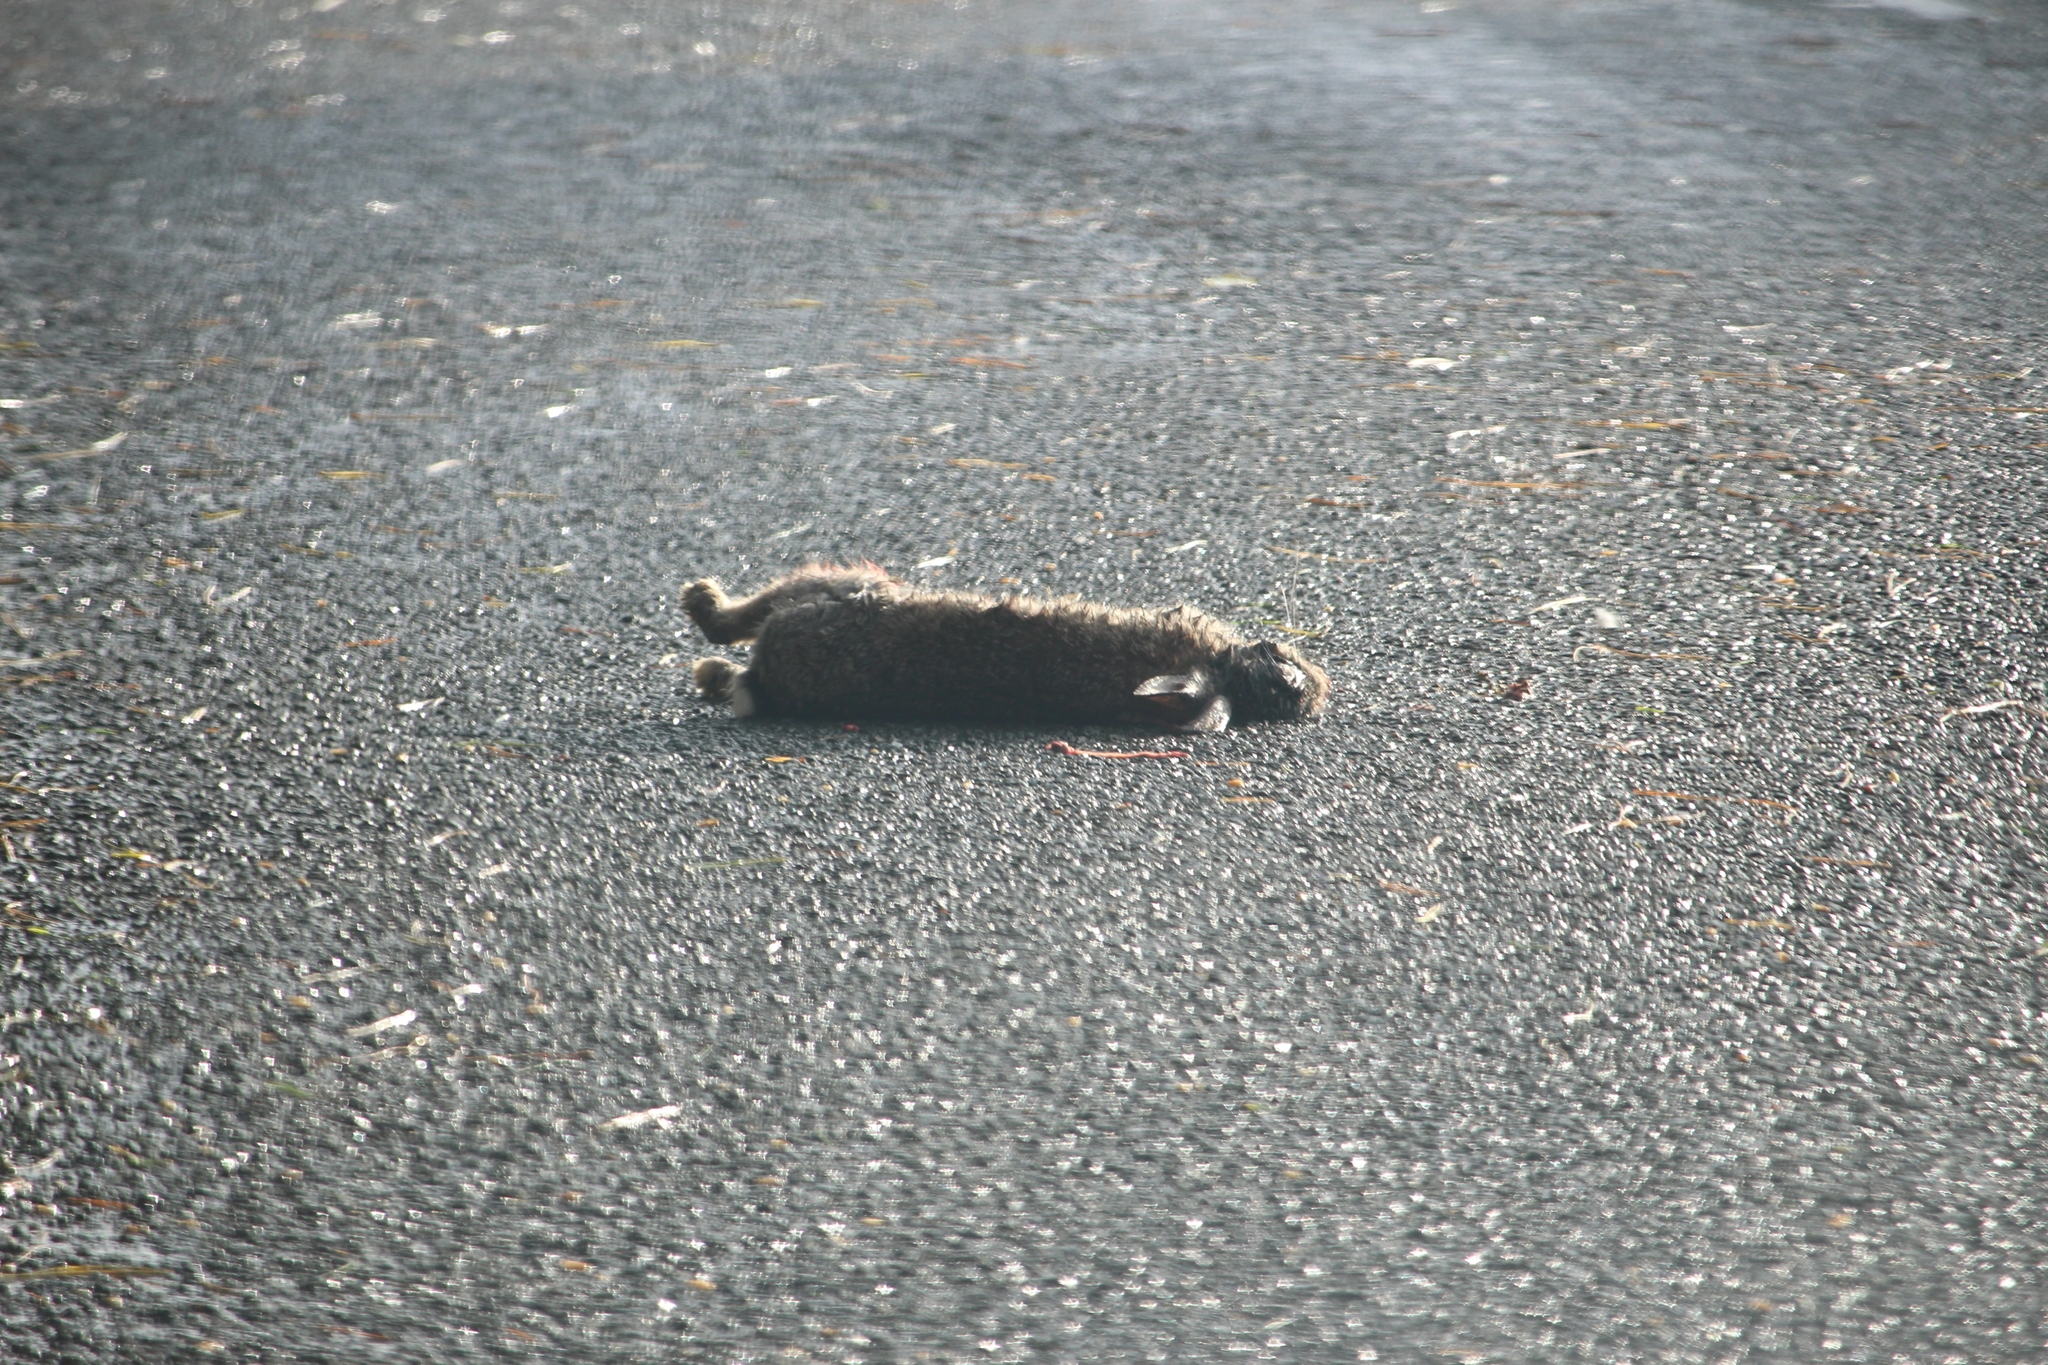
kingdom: Animalia
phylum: Chordata
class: Mammalia
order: Lagomorpha
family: Leporidae
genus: Oryctolagus
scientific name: Oryctolagus cuniculus
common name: European rabbit
